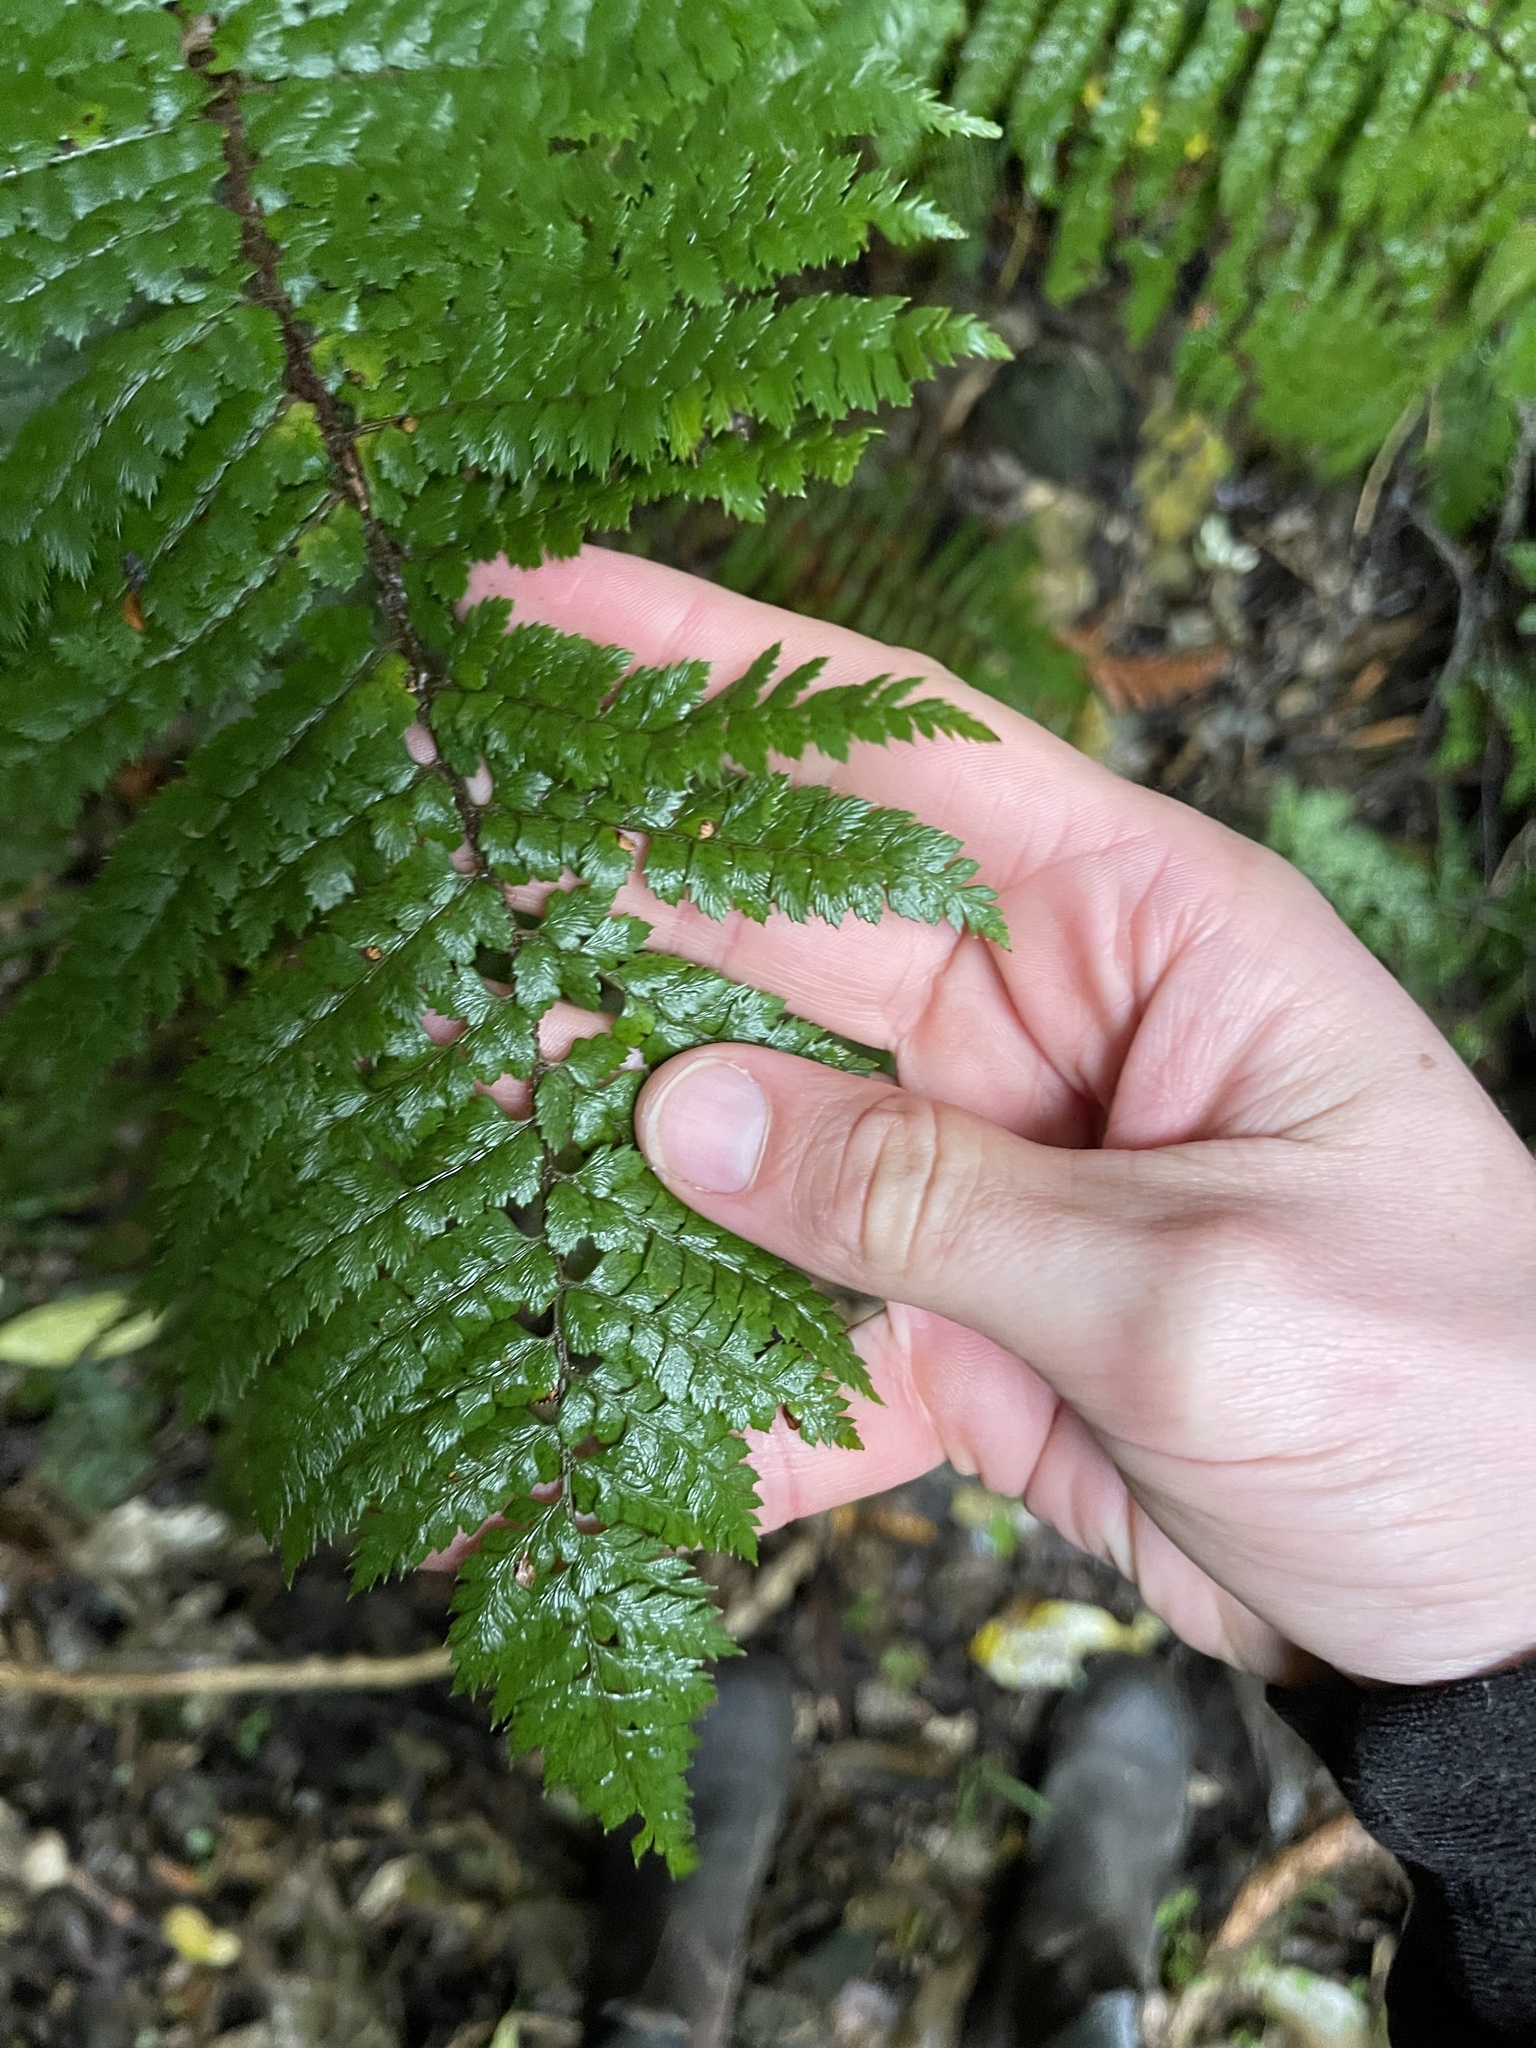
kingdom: Plantae
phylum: Tracheophyta
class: Polypodiopsida
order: Polypodiales
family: Dryopteridaceae
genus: Polystichum
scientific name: Polystichum vestitum
